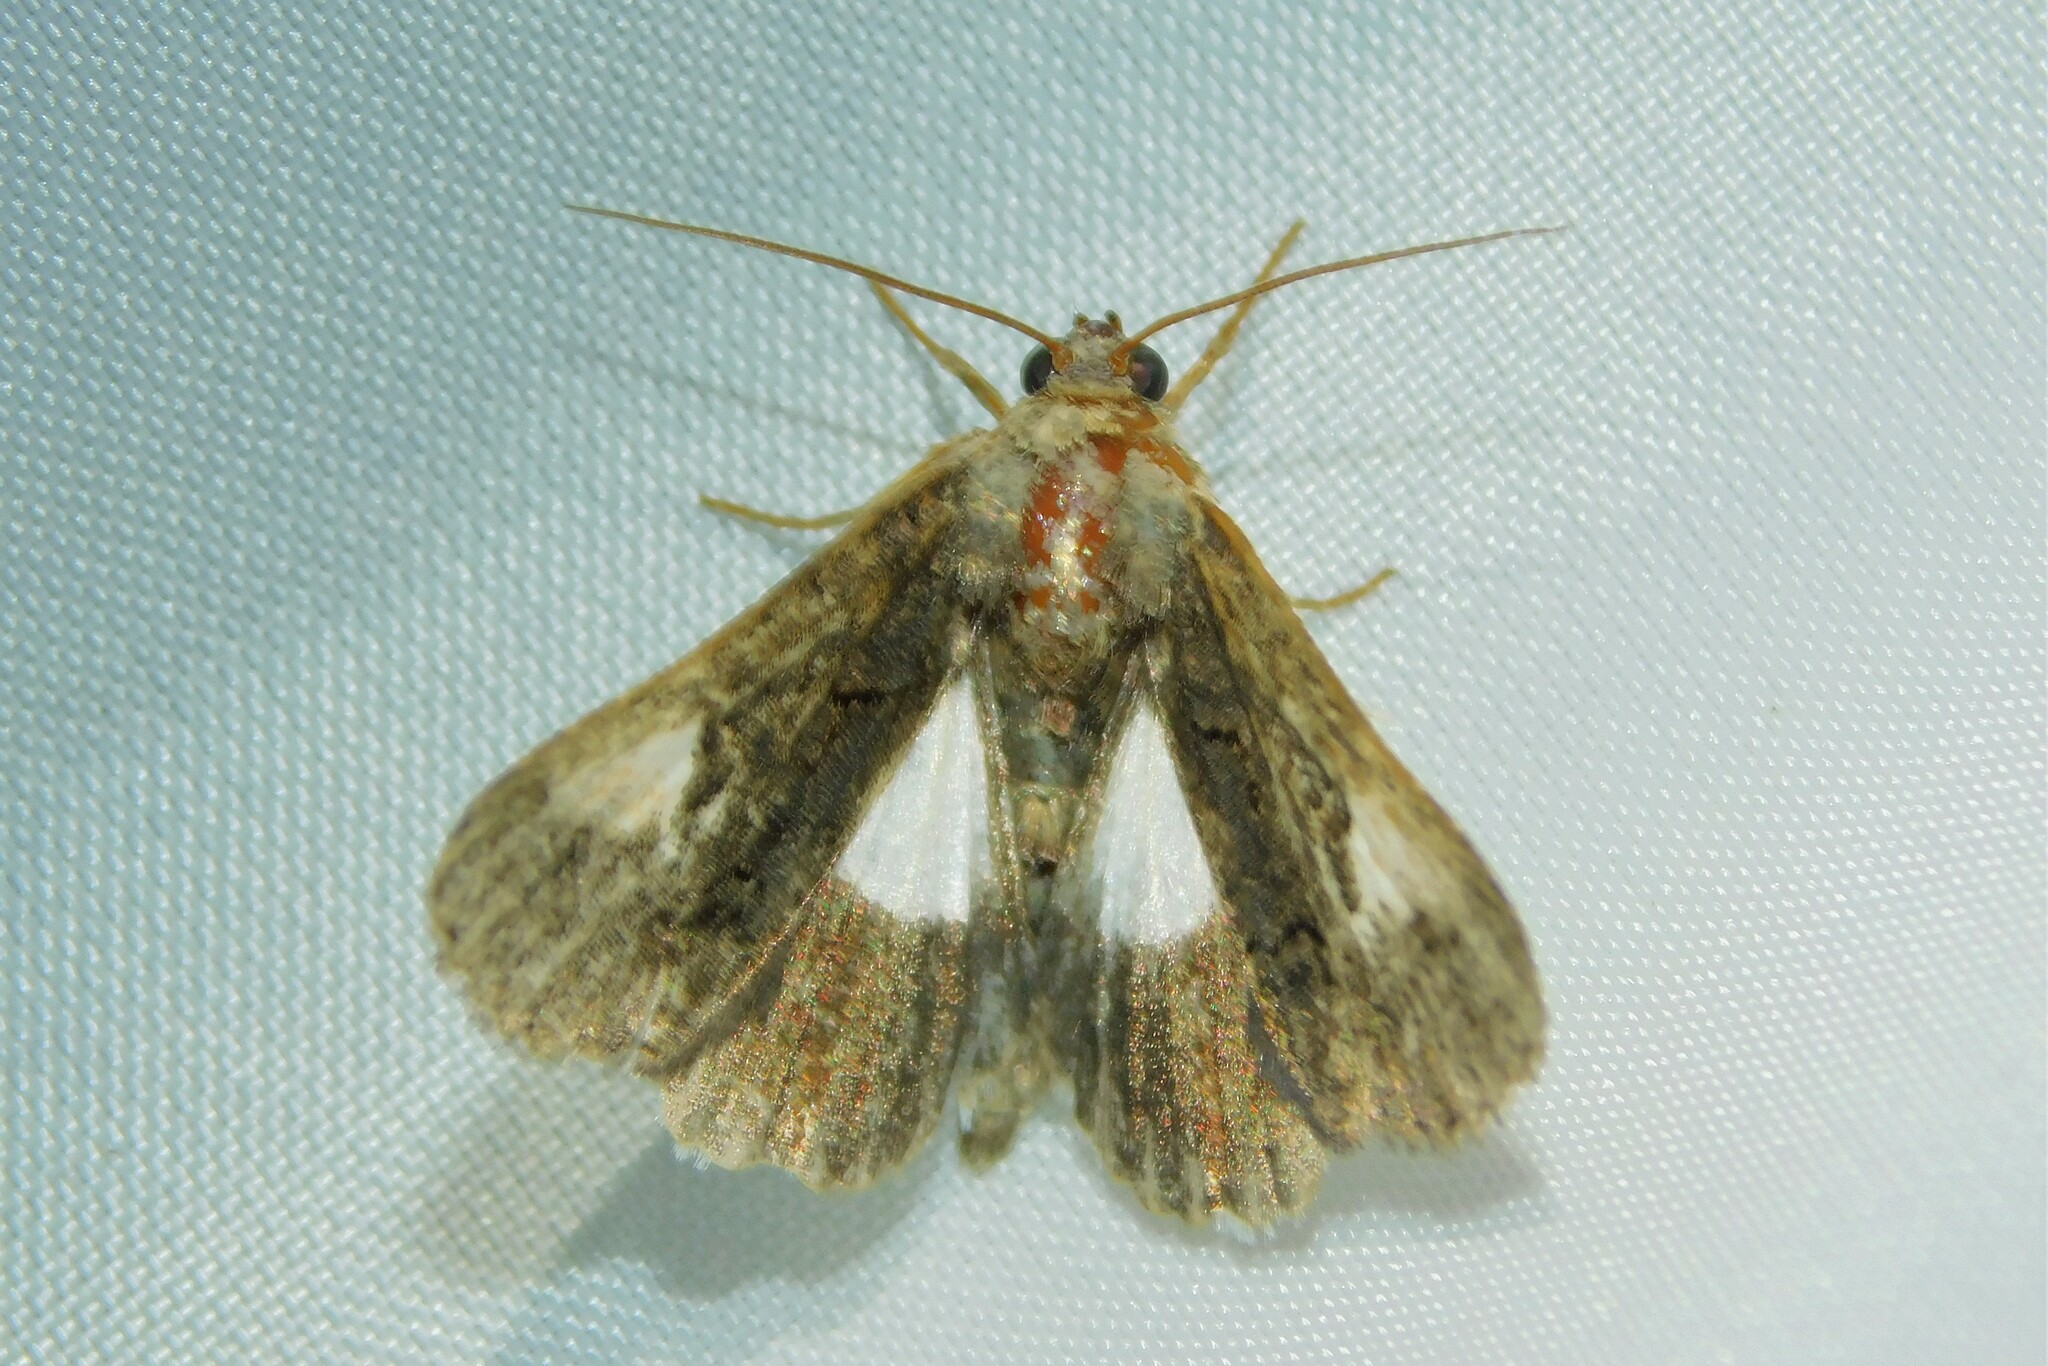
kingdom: Animalia
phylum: Arthropoda
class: Insecta
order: Lepidoptera
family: Noctuidae
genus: Aedia
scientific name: Aedia funesta
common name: The druid
